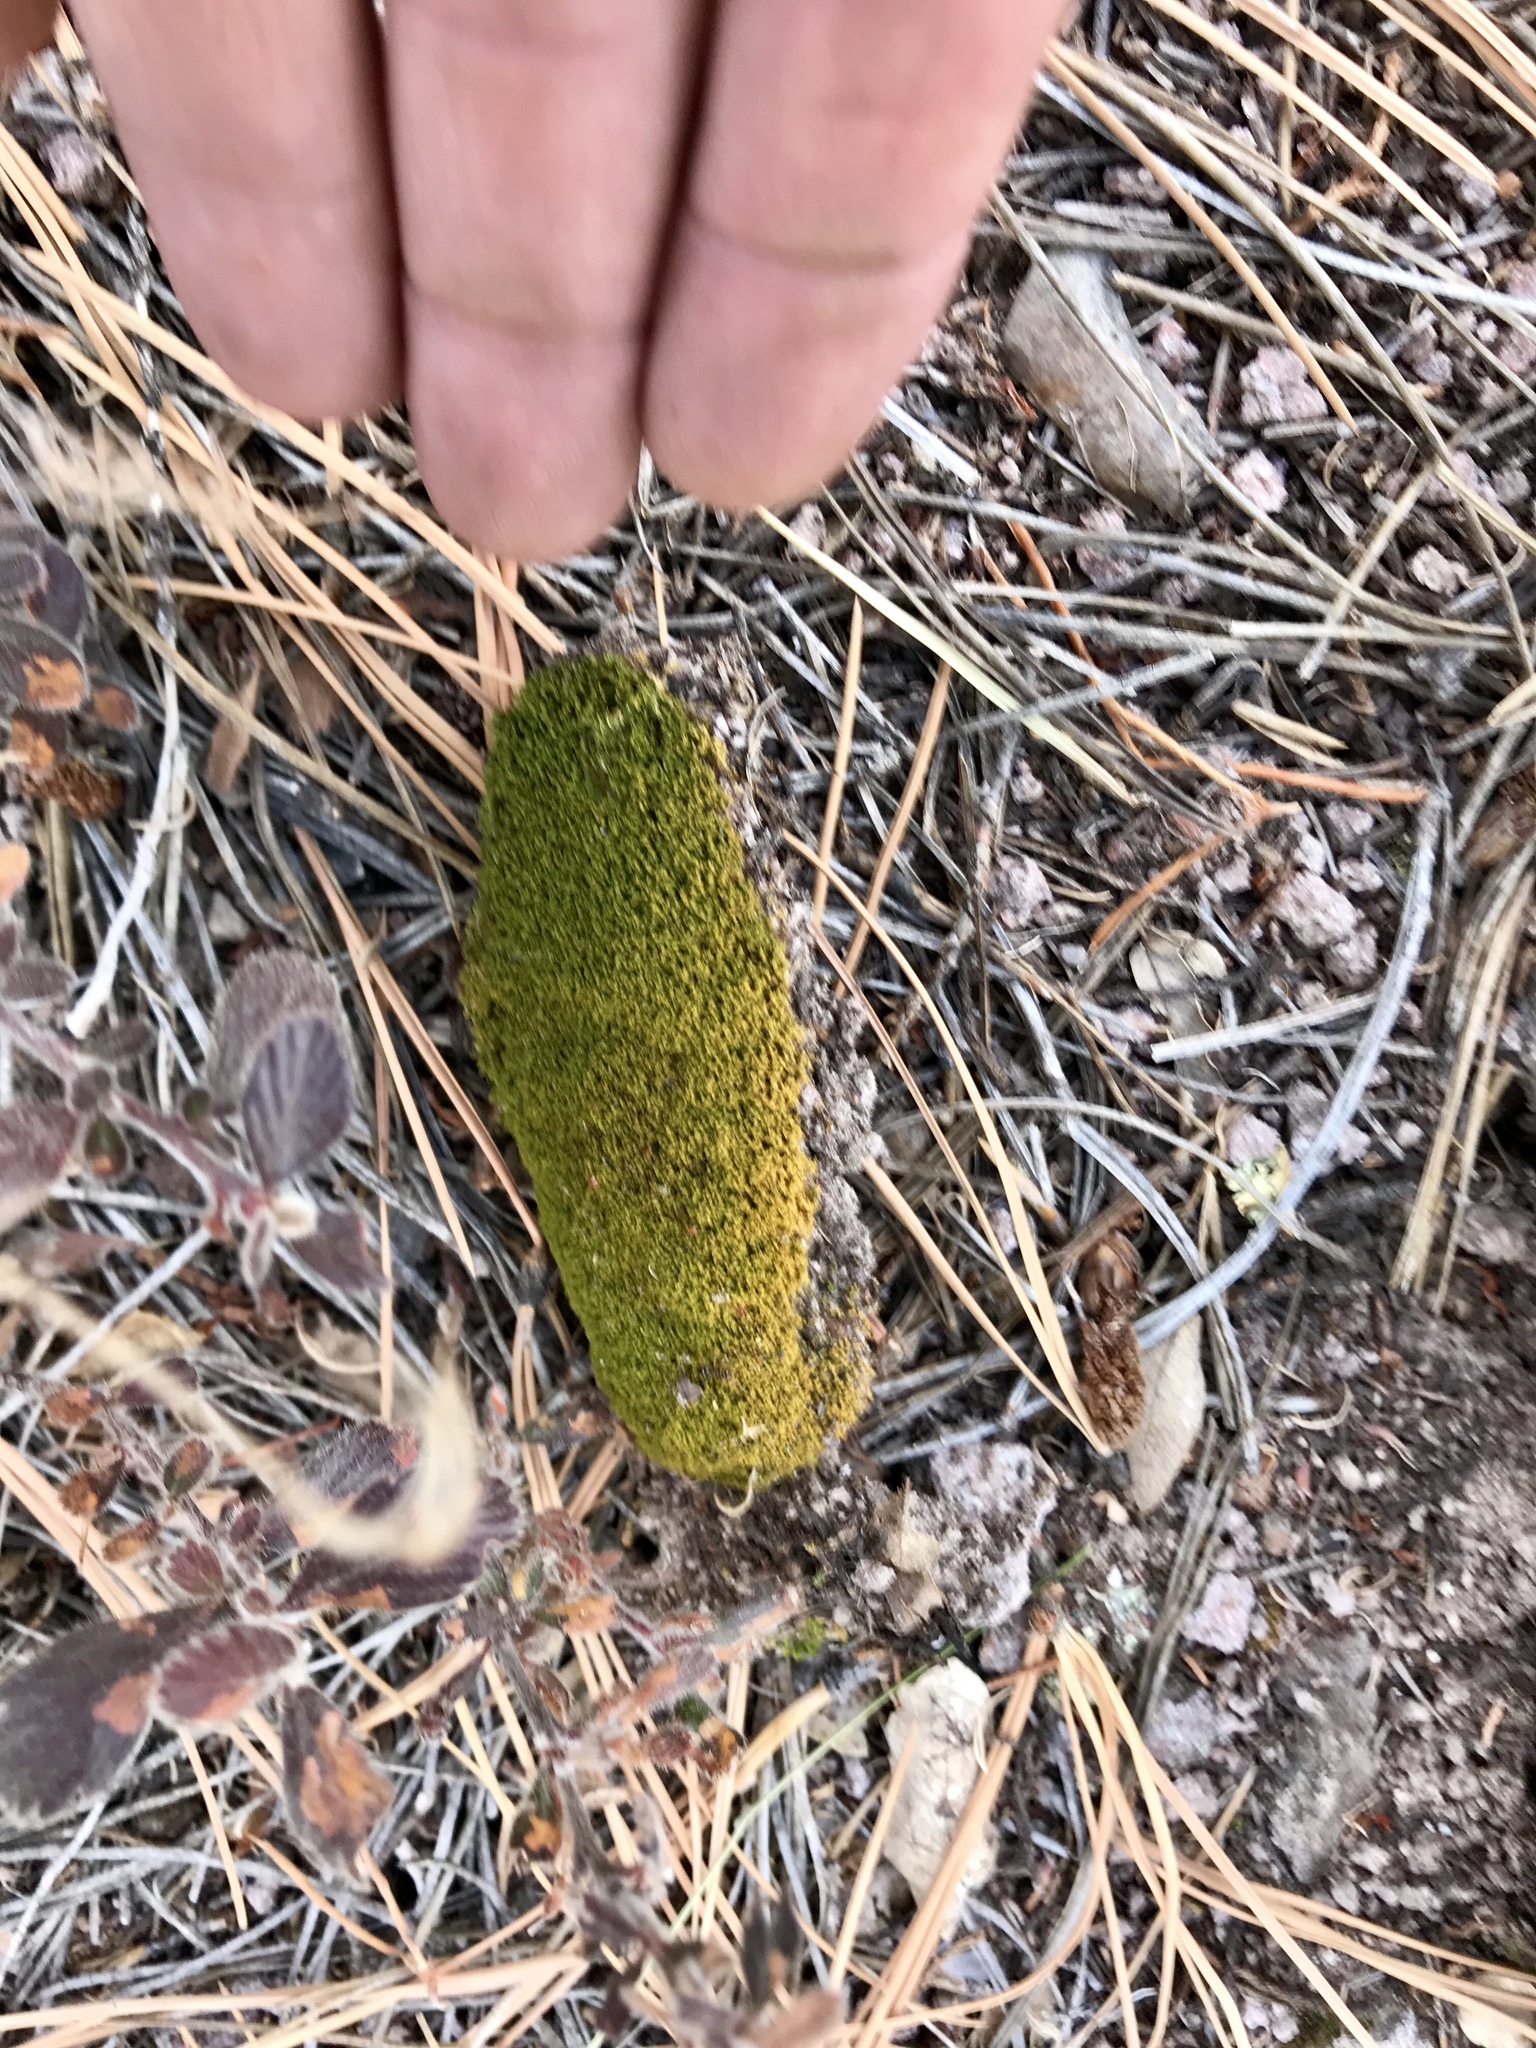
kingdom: Plantae
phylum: Bryophyta
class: Bryopsida
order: Dicranales
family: Ditrichaceae
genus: Ceratodon
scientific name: Ceratodon purpureus
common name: Redshank
